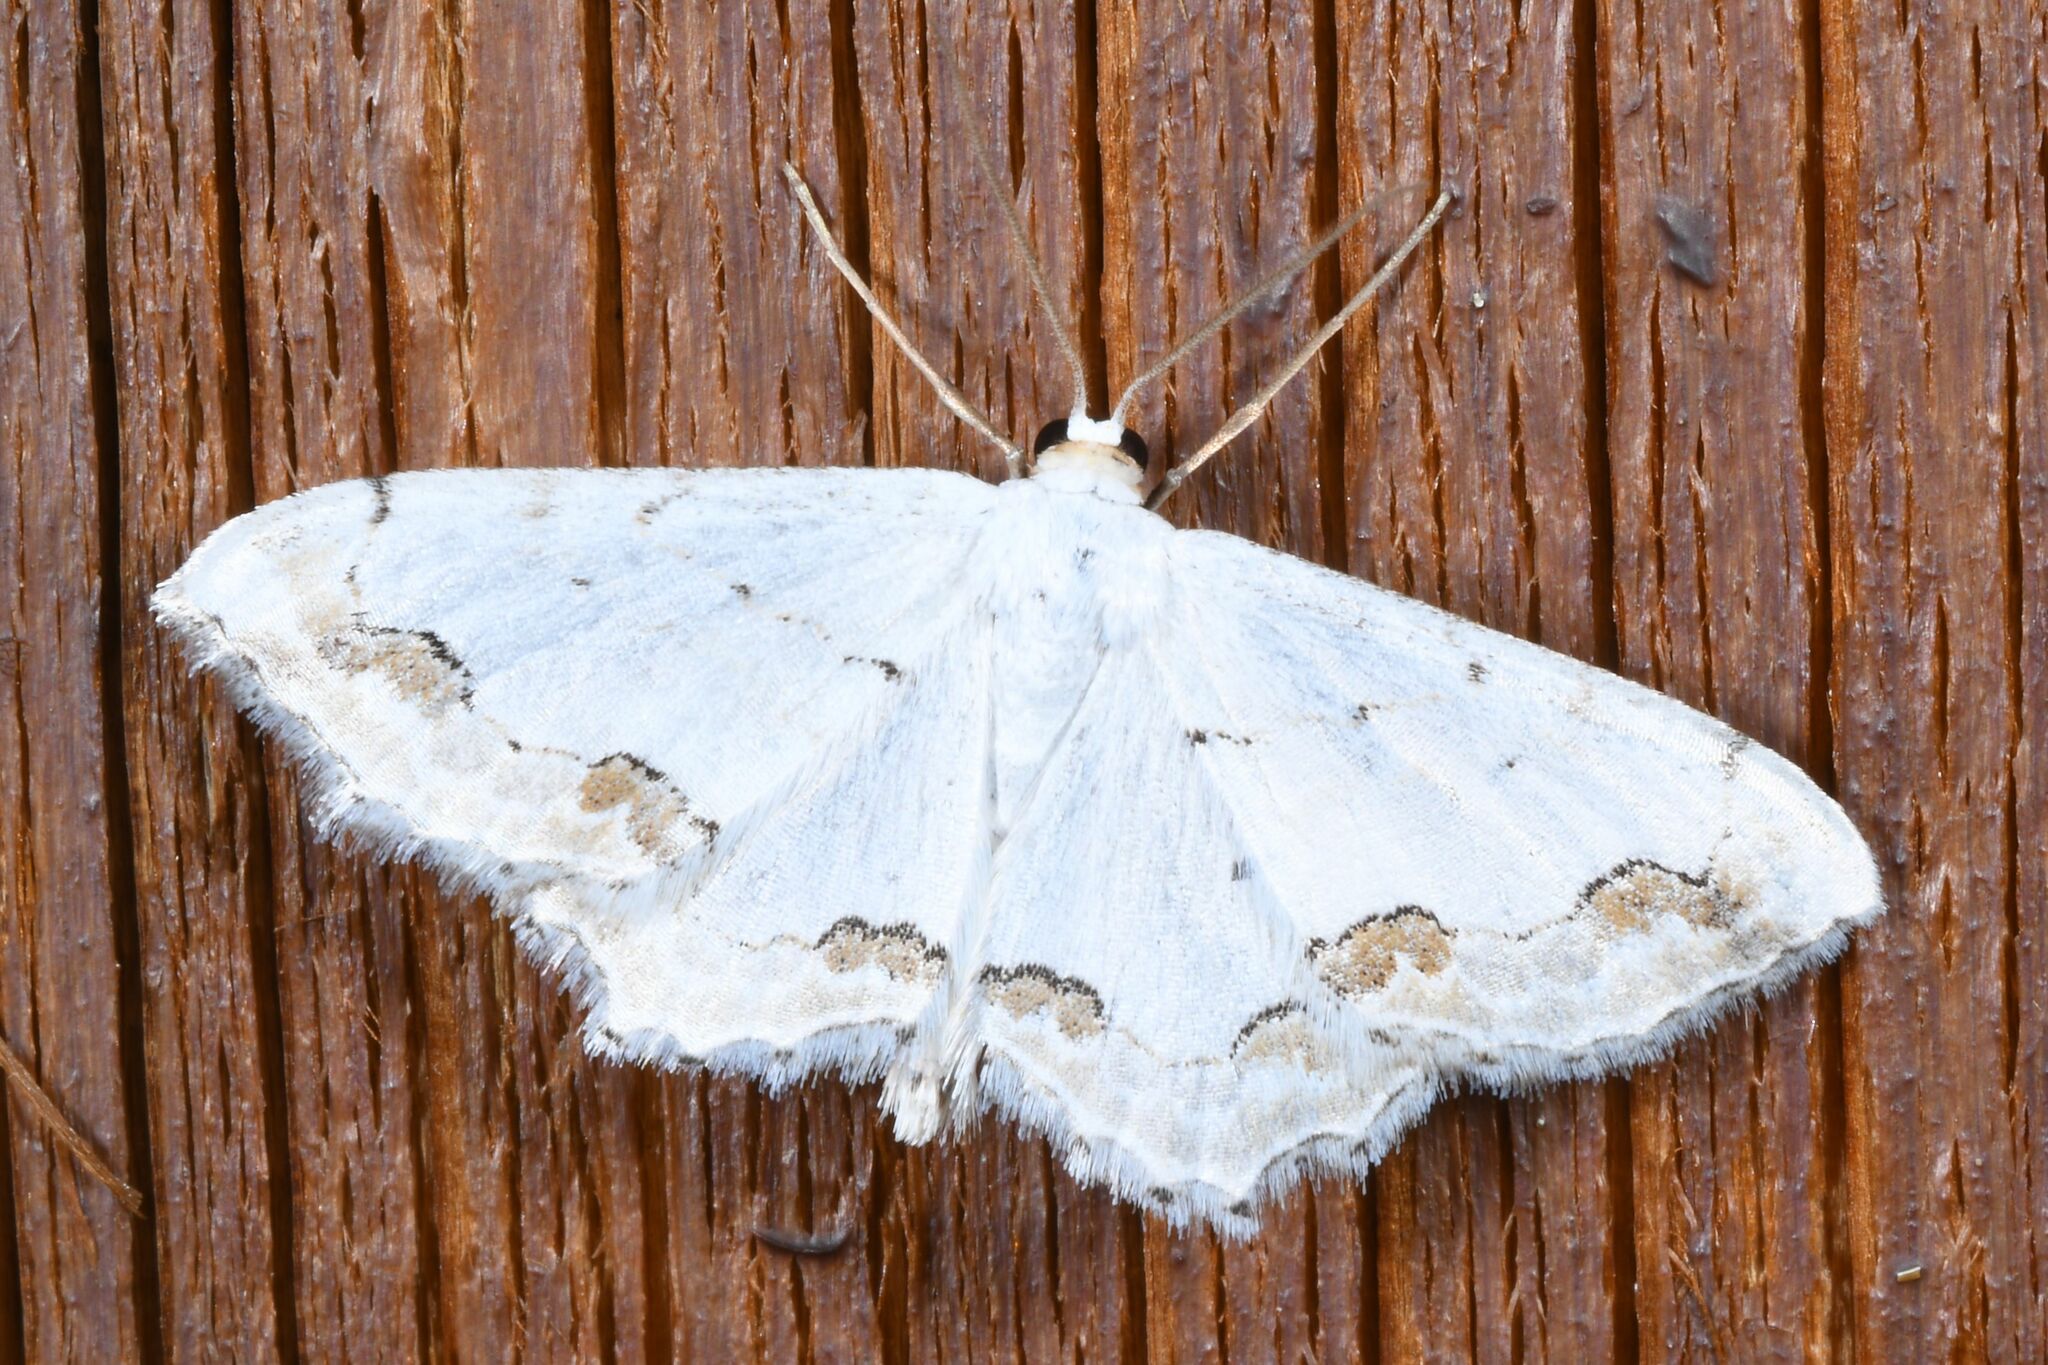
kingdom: Animalia
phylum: Arthropoda
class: Insecta
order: Lepidoptera
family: Geometridae
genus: Scopula
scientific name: Scopula ornata
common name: Lace border
